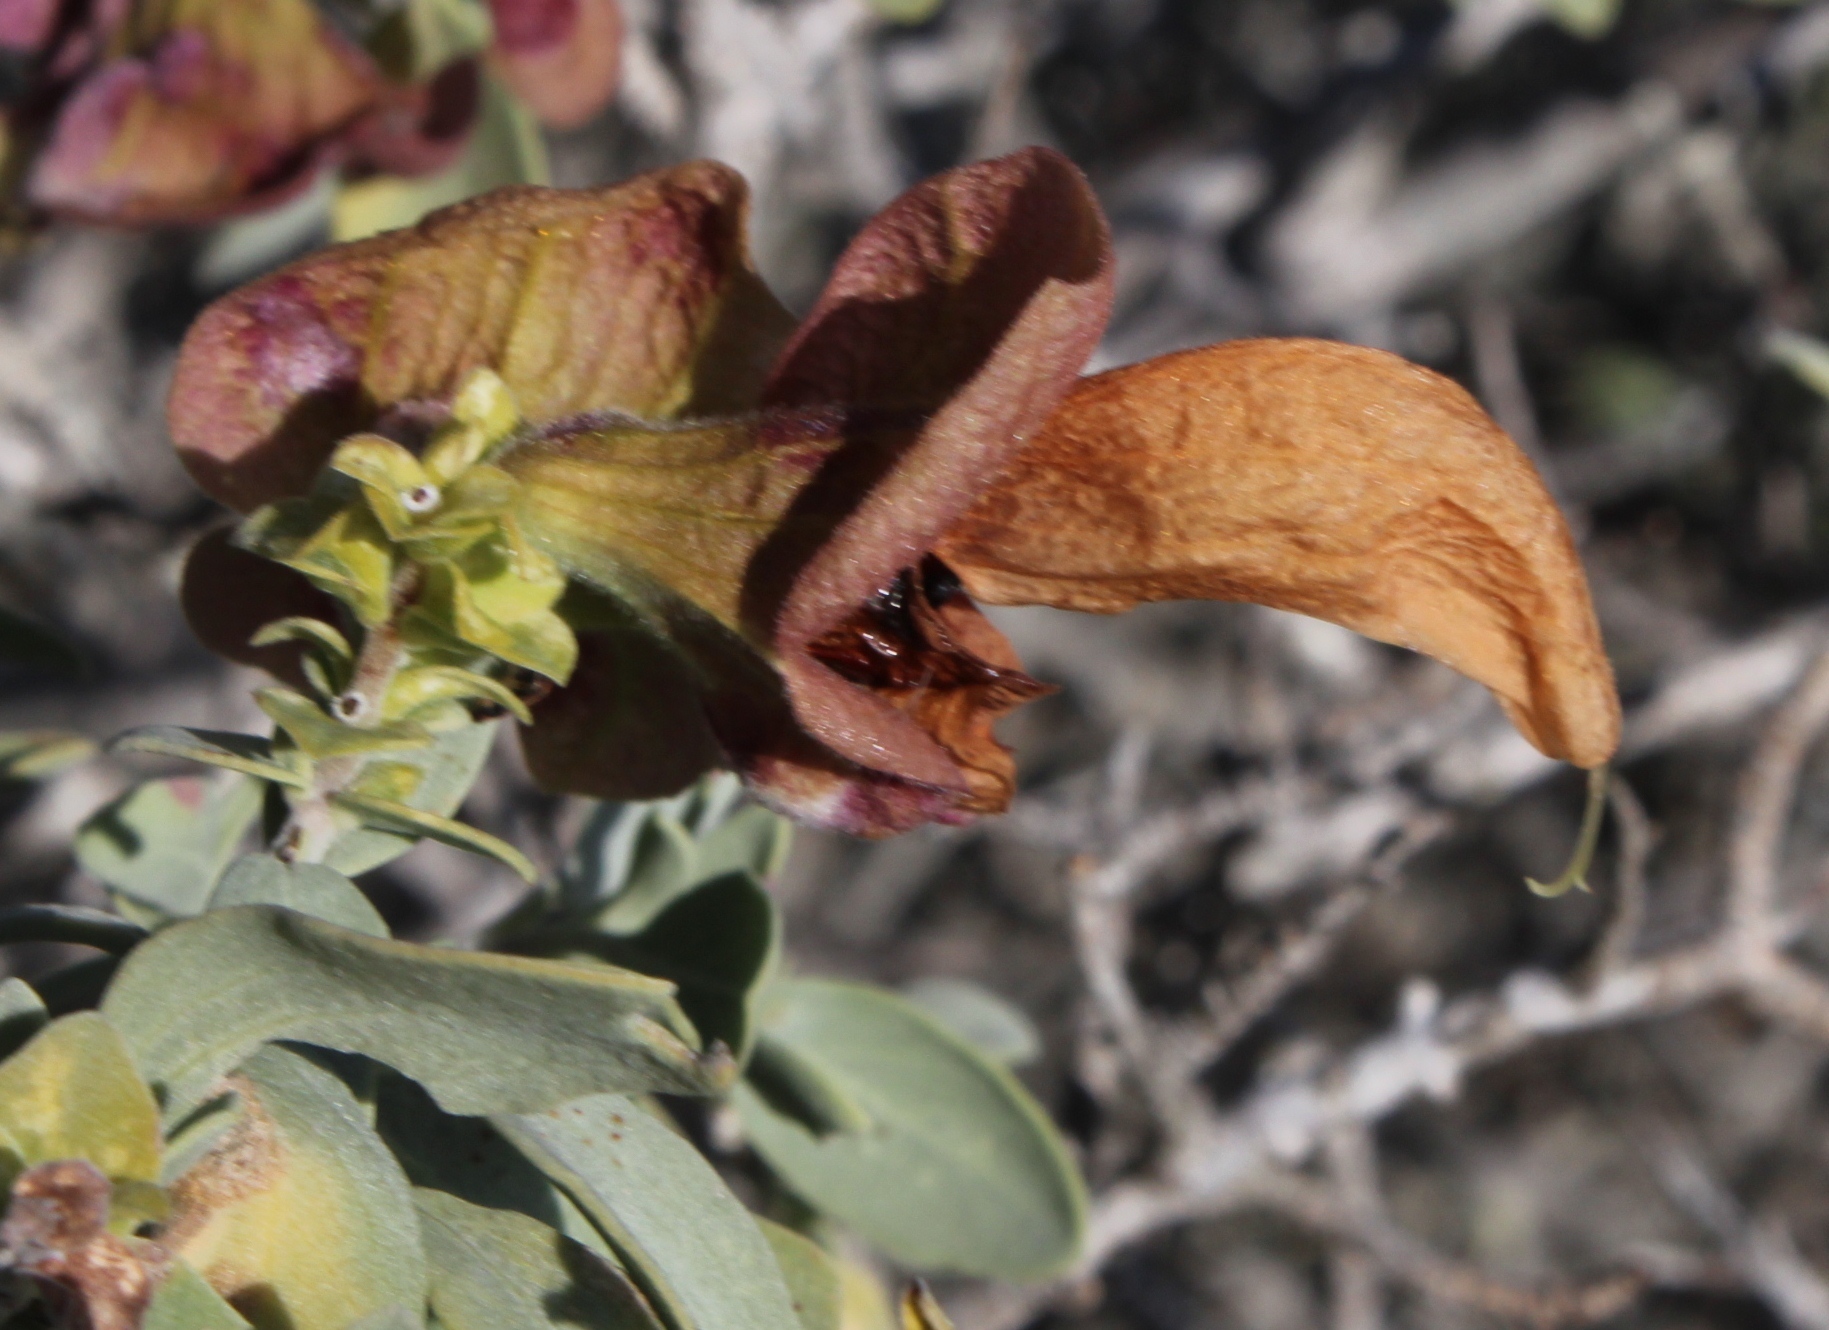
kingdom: Plantae
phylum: Tracheophyta
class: Magnoliopsida
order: Lamiales
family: Lamiaceae
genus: Salvia
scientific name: Salvia aurea
